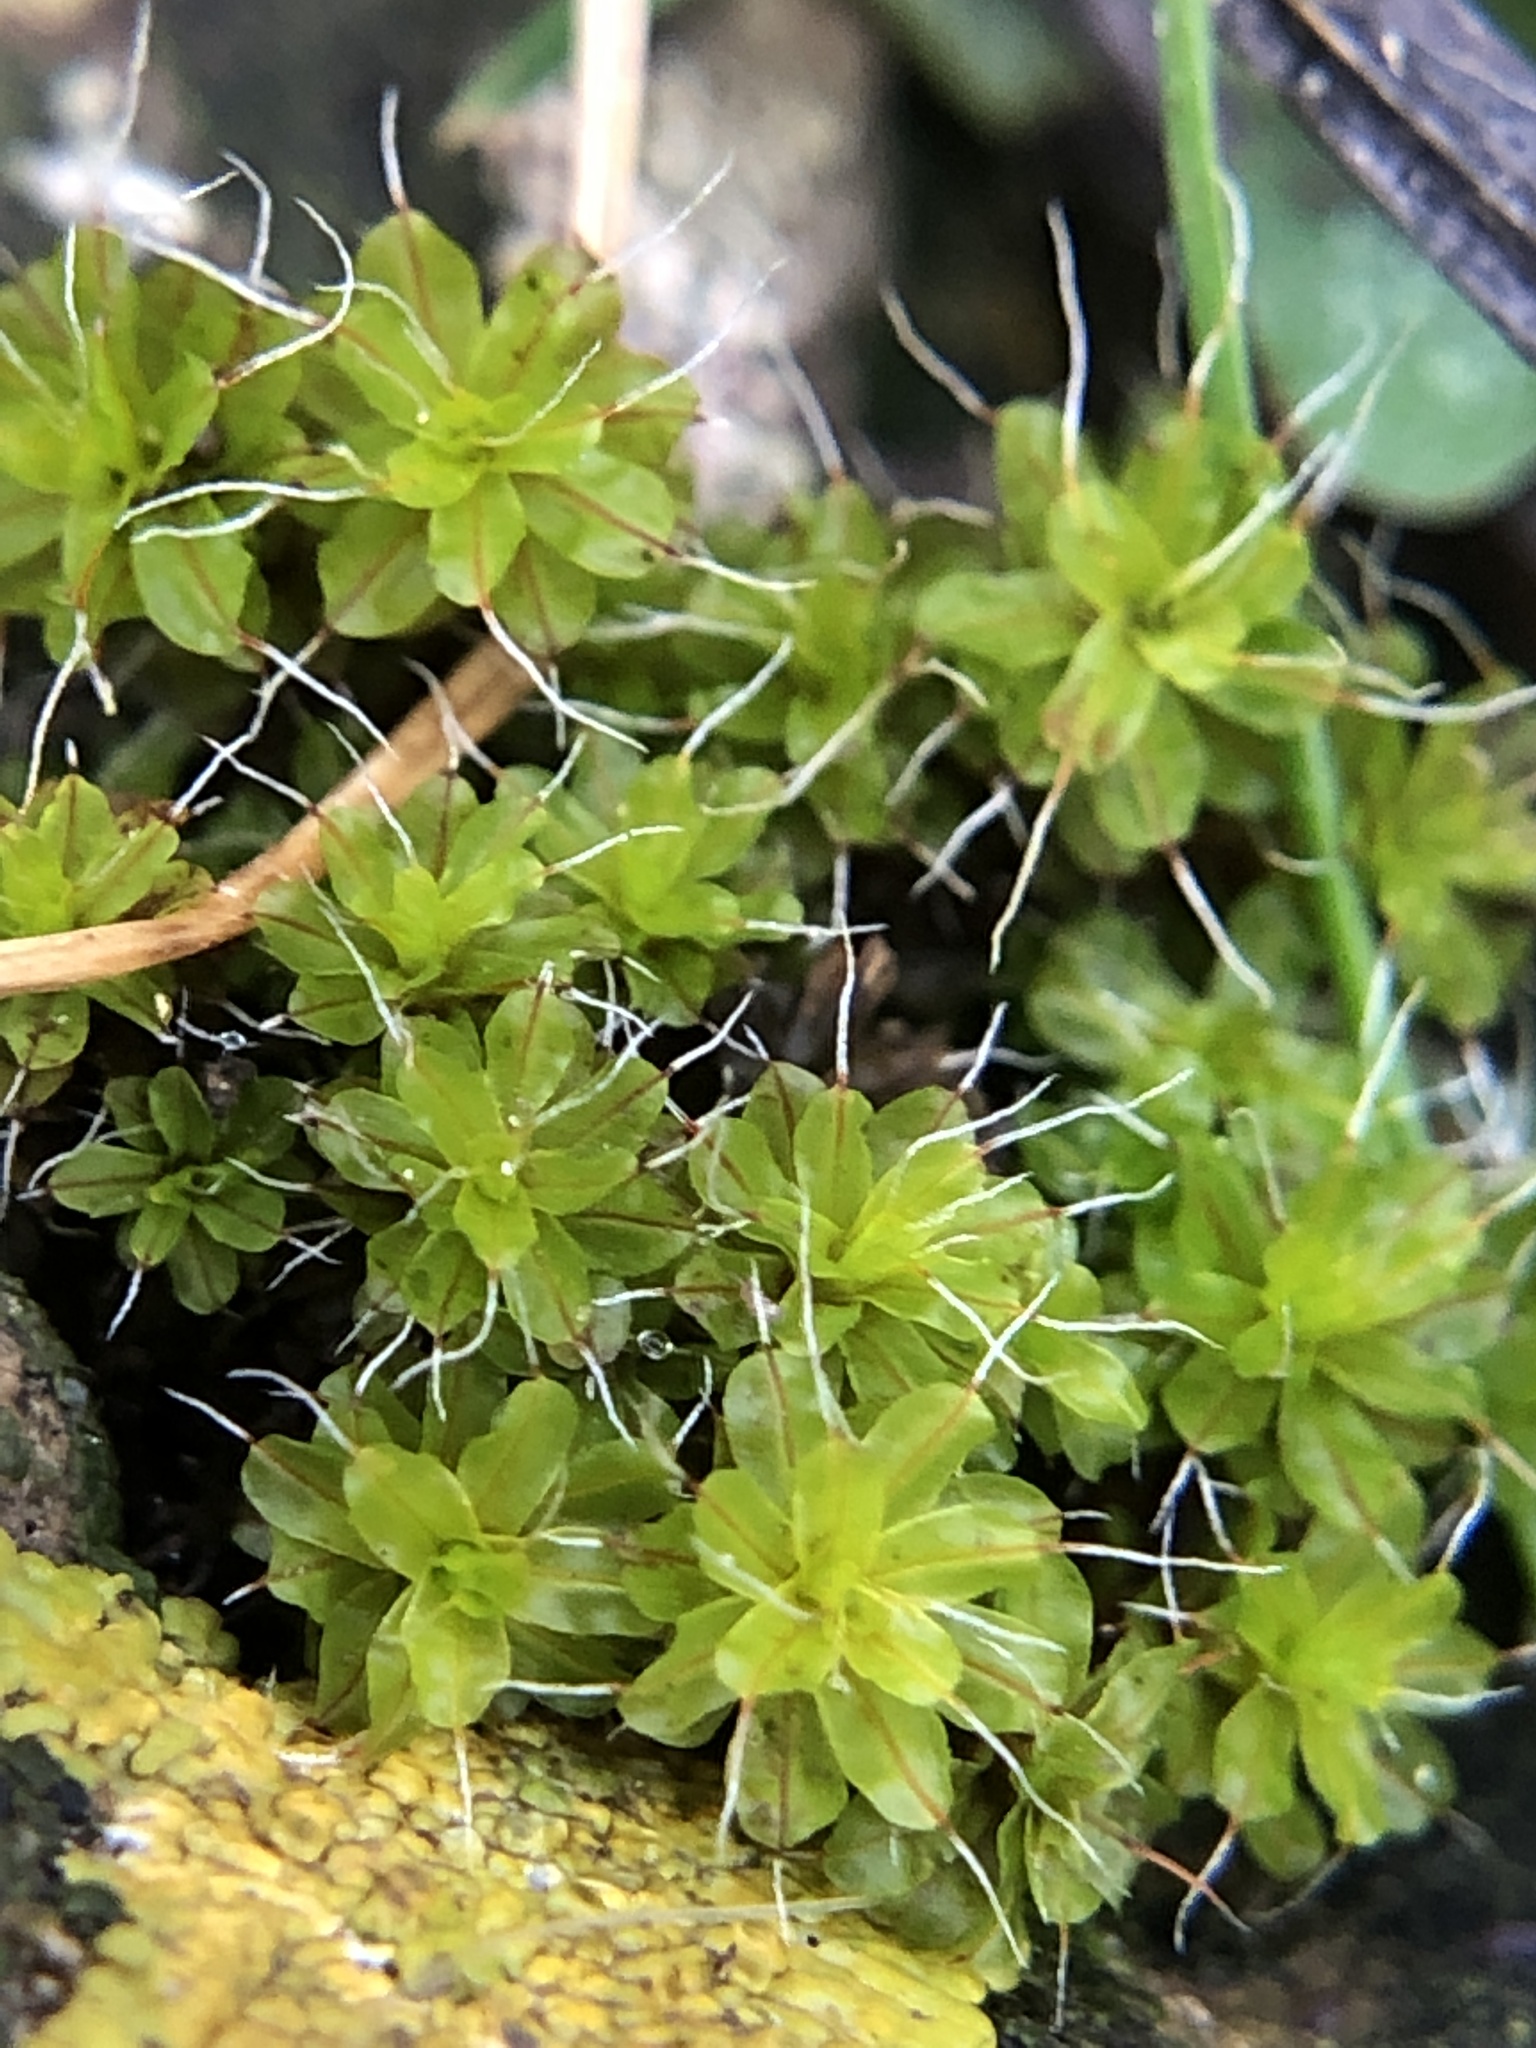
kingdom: Plantae
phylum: Bryophyta
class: Bryopsida
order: Pottiales
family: Pottiaceae
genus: Syntrichia
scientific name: Syntrichia montana
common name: Intermediate screw-moss
